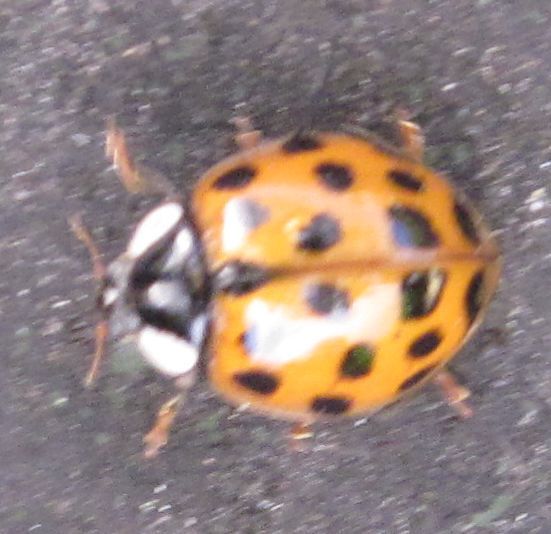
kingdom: Animalia
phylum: Arthropoda
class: Insecta
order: Coleoptera
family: Coccinellidae
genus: Harmonia
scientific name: Harmonia axyridis
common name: Harlequin ladybird
